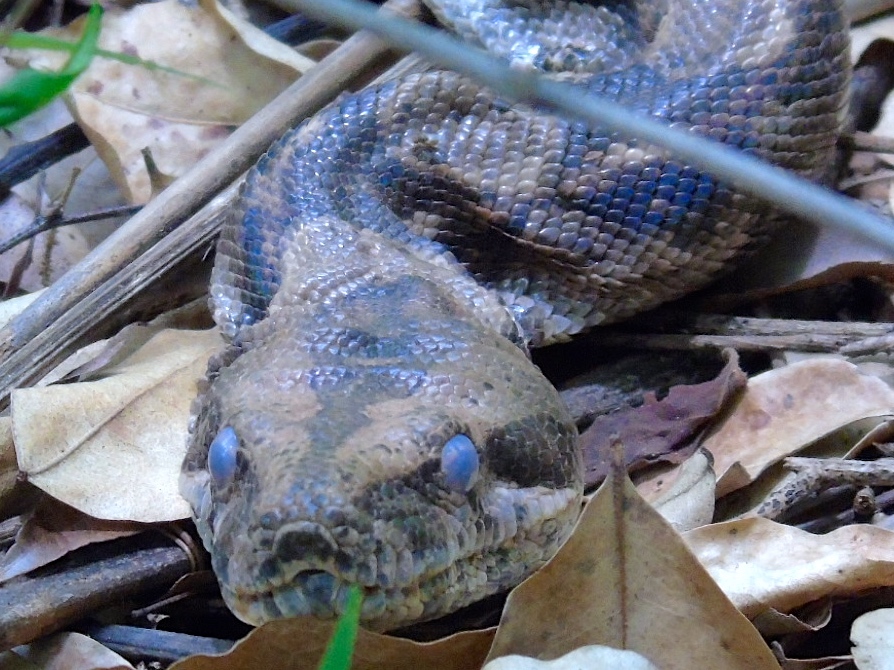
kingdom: Animalia
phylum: Chordata
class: Squamata
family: Boidae
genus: Boa
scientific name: Boa
